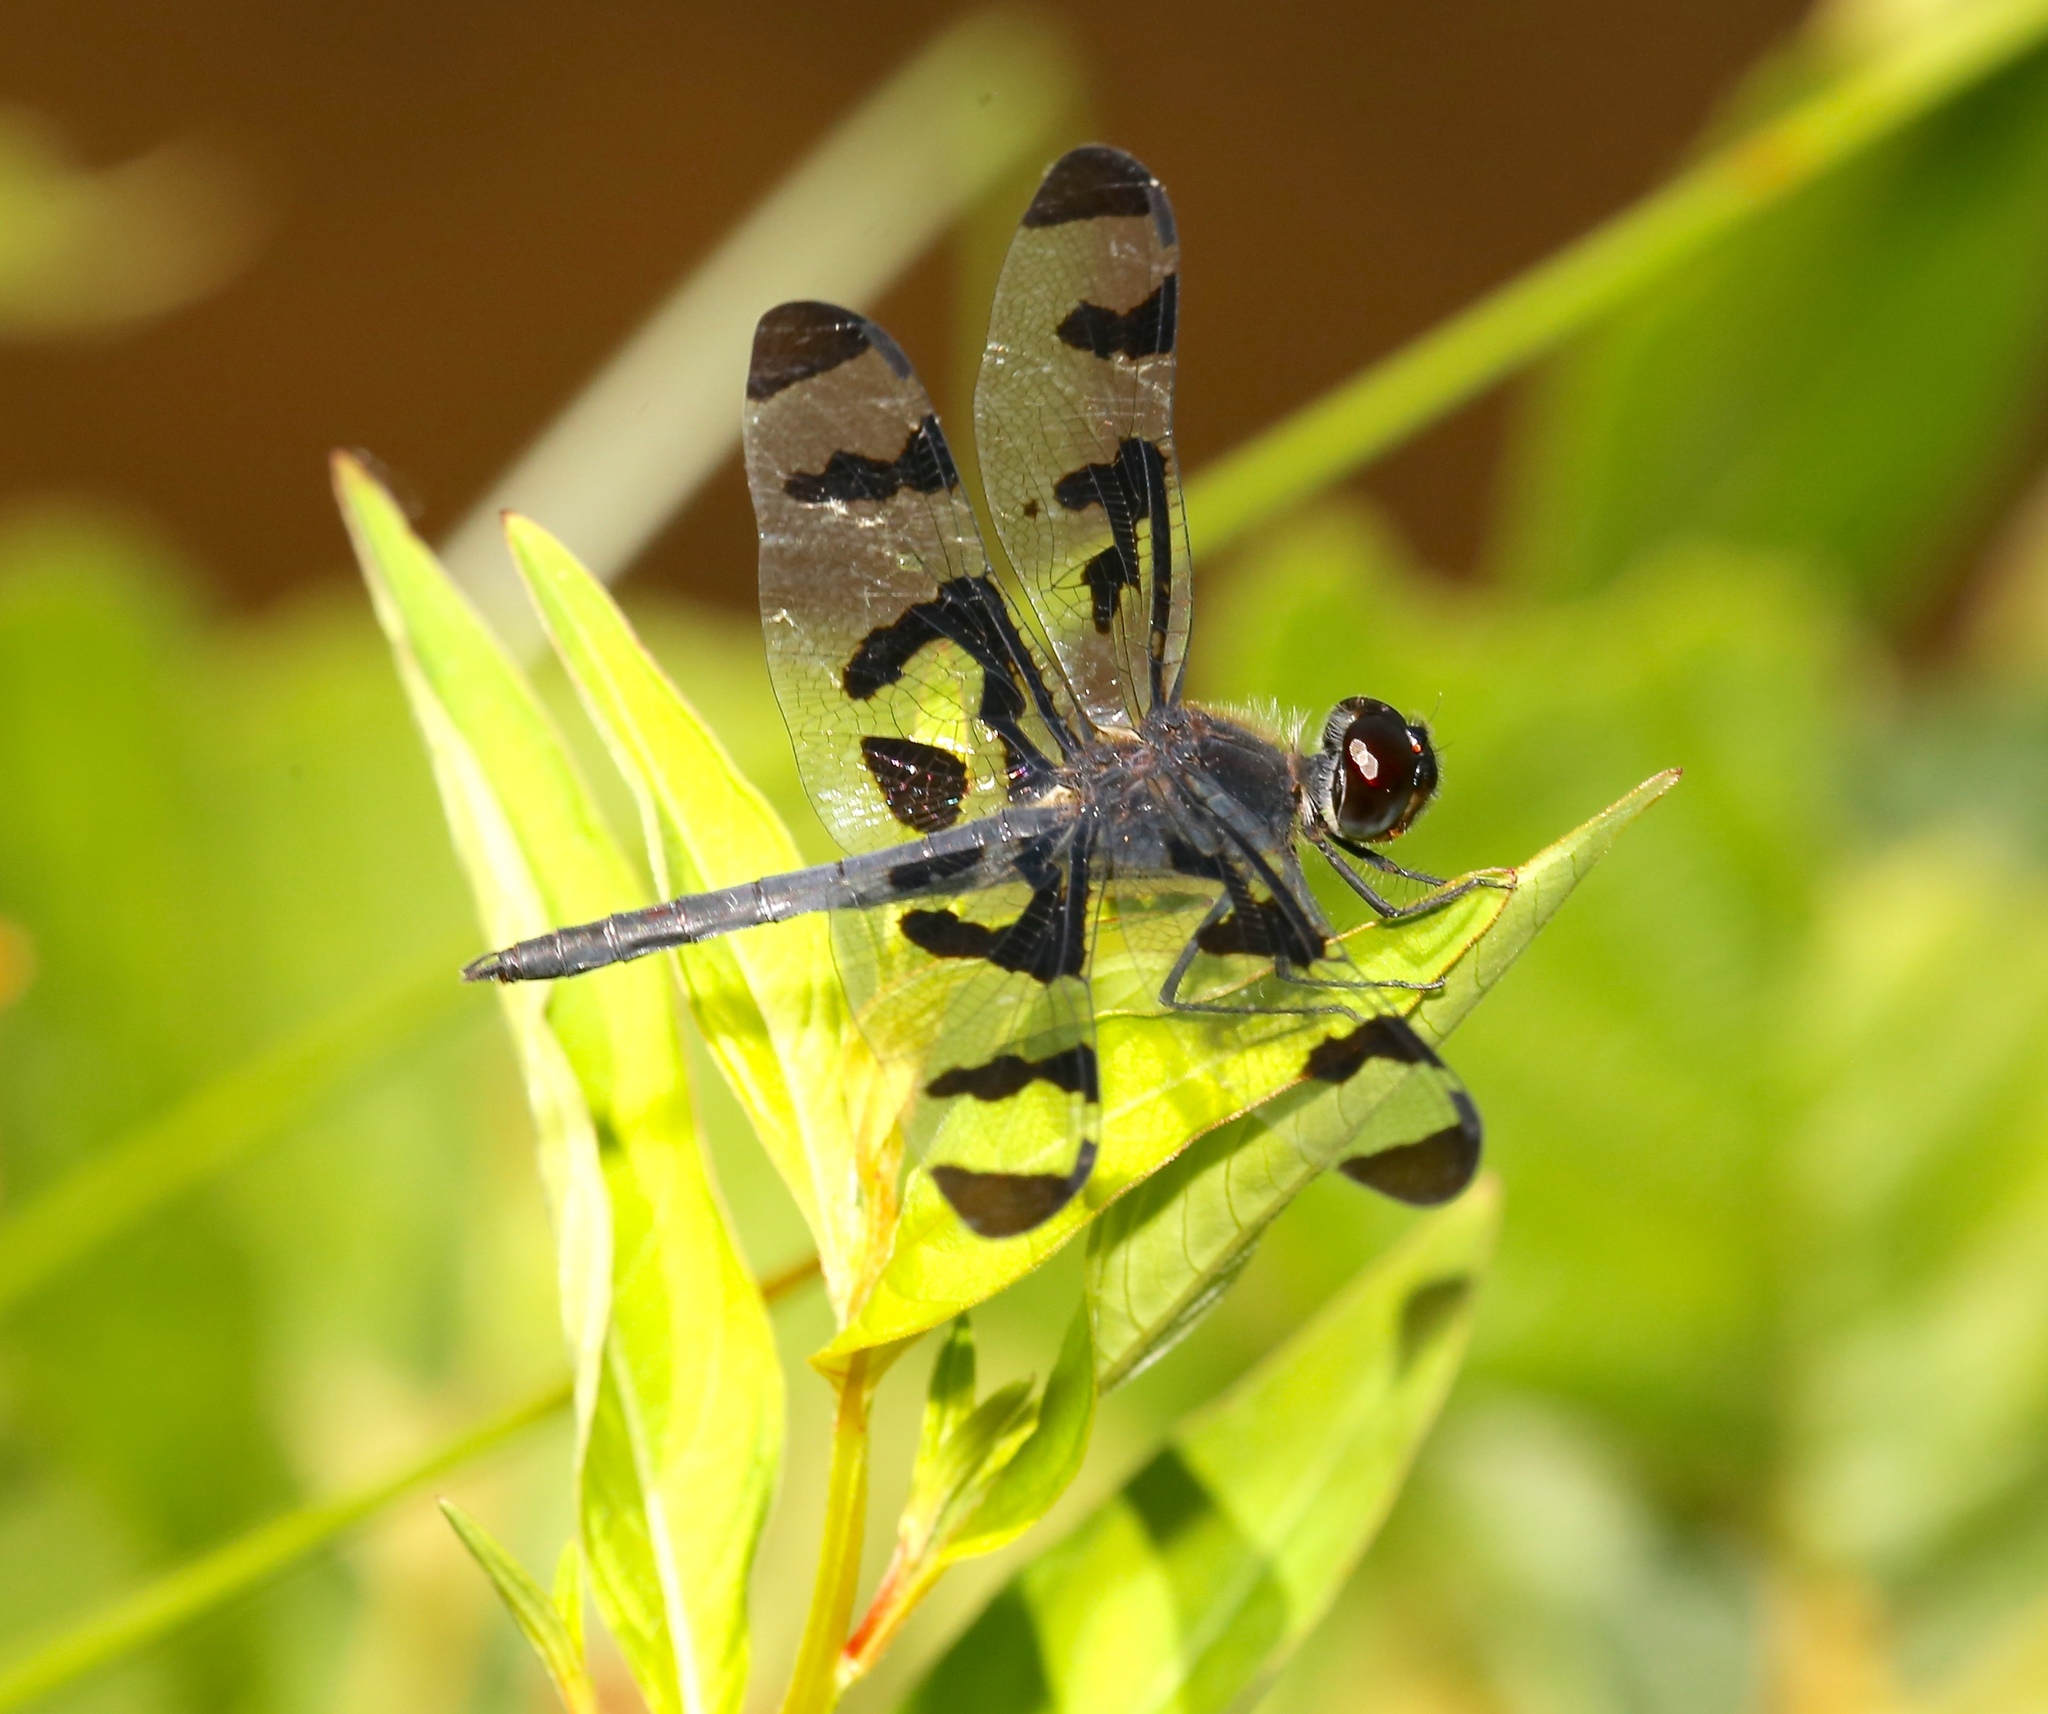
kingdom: Animalia
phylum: Arthropoda
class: Insecta
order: Odonata
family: Libellulidae
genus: Celithemis
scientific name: Celithemis fasciata
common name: Banded pennant
